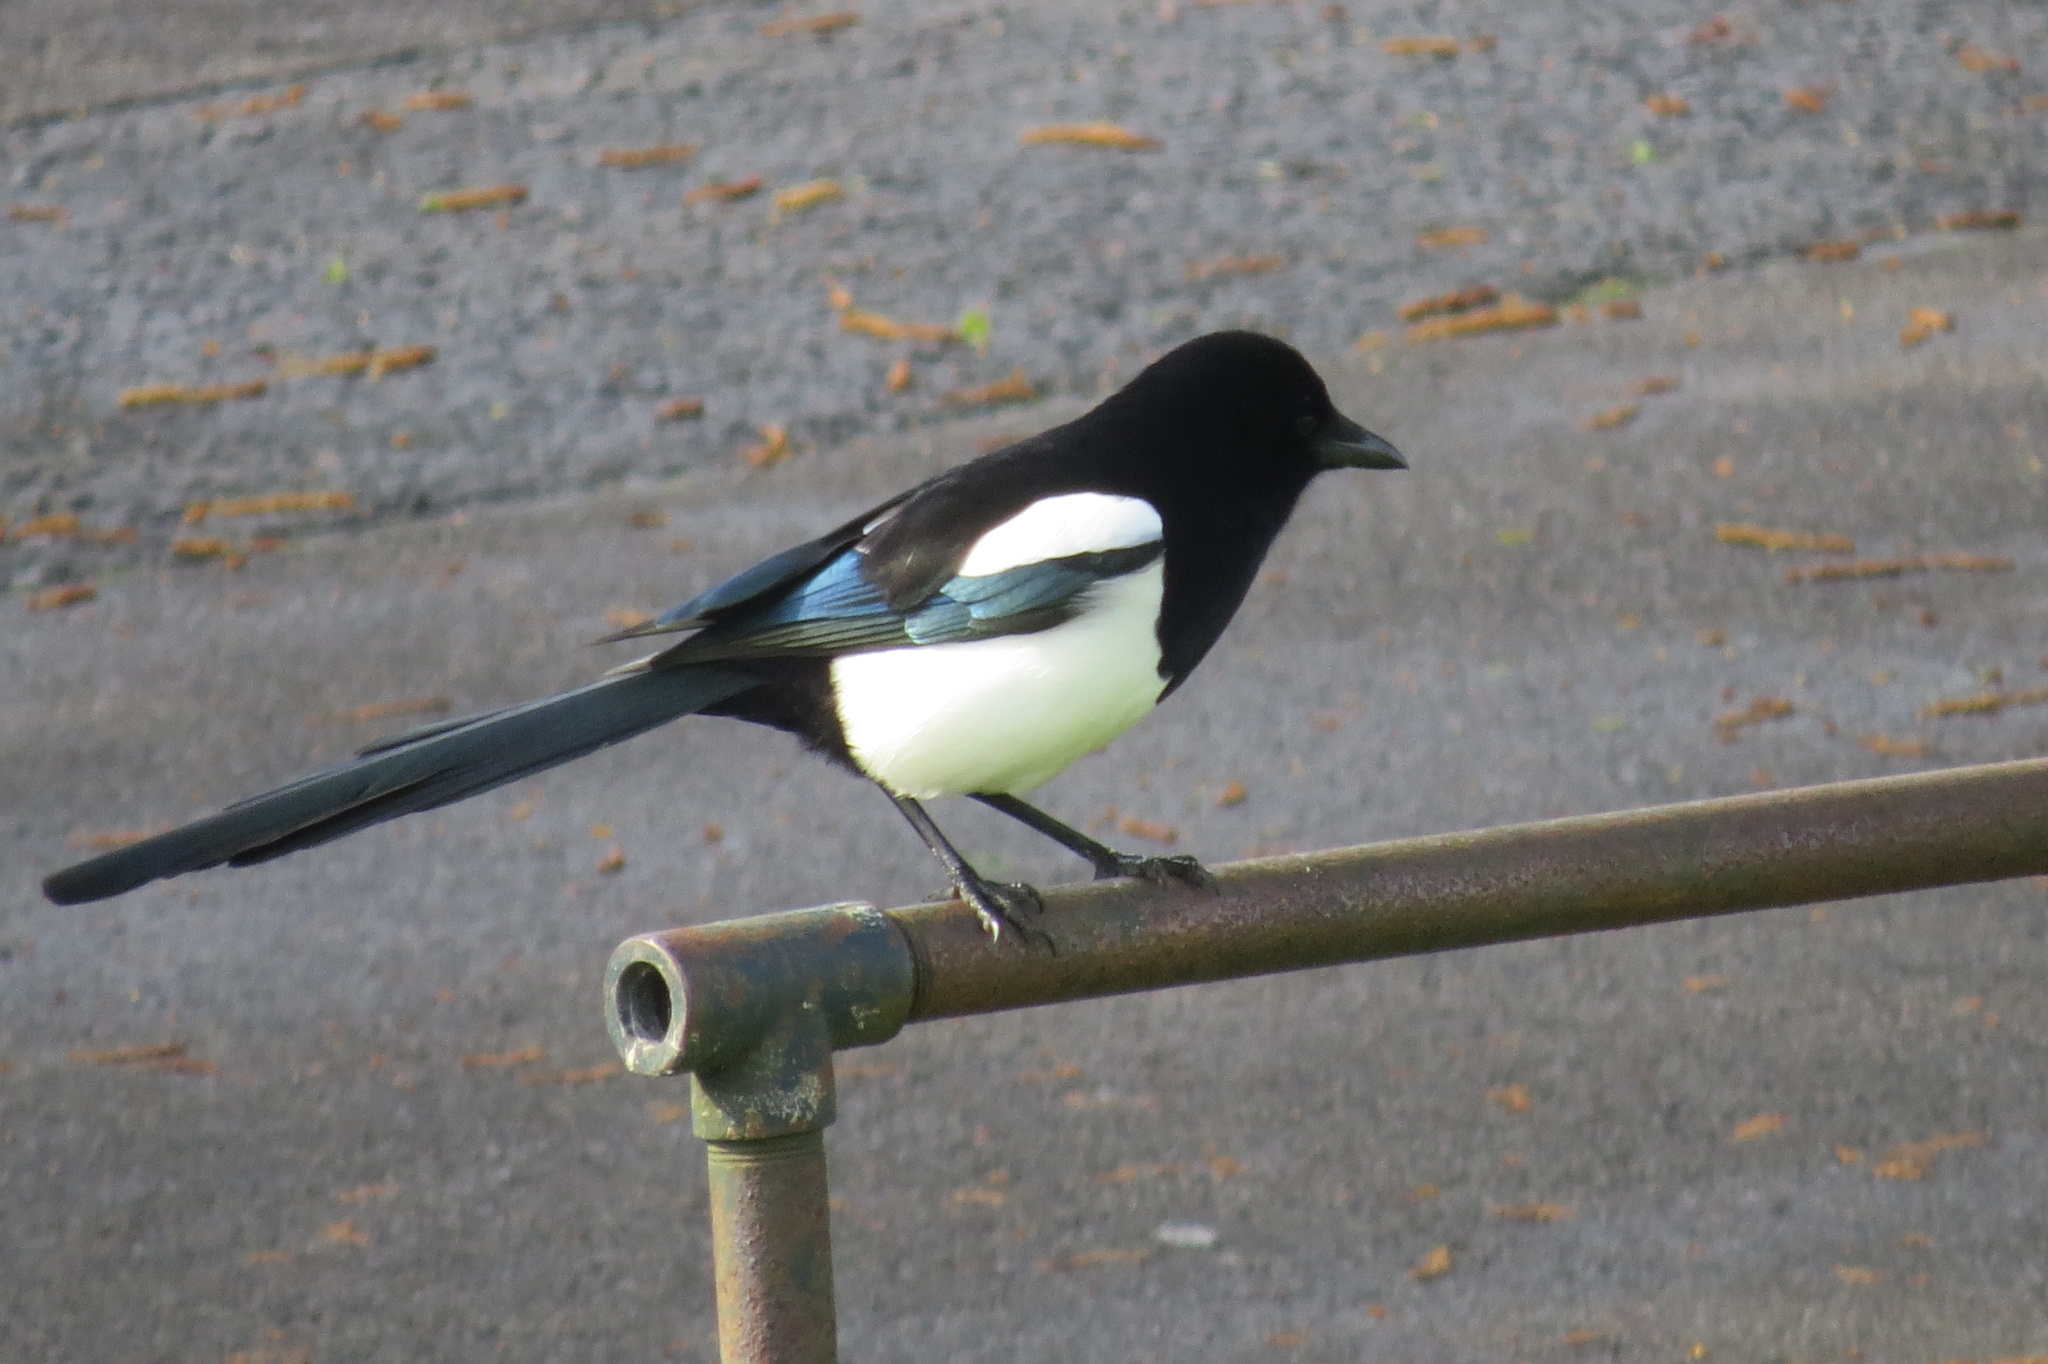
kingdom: Animalia
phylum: Chordata
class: Aves
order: Passeriformes
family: Corvidae
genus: Pica
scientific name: Pica pica
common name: Eurasian magpie
